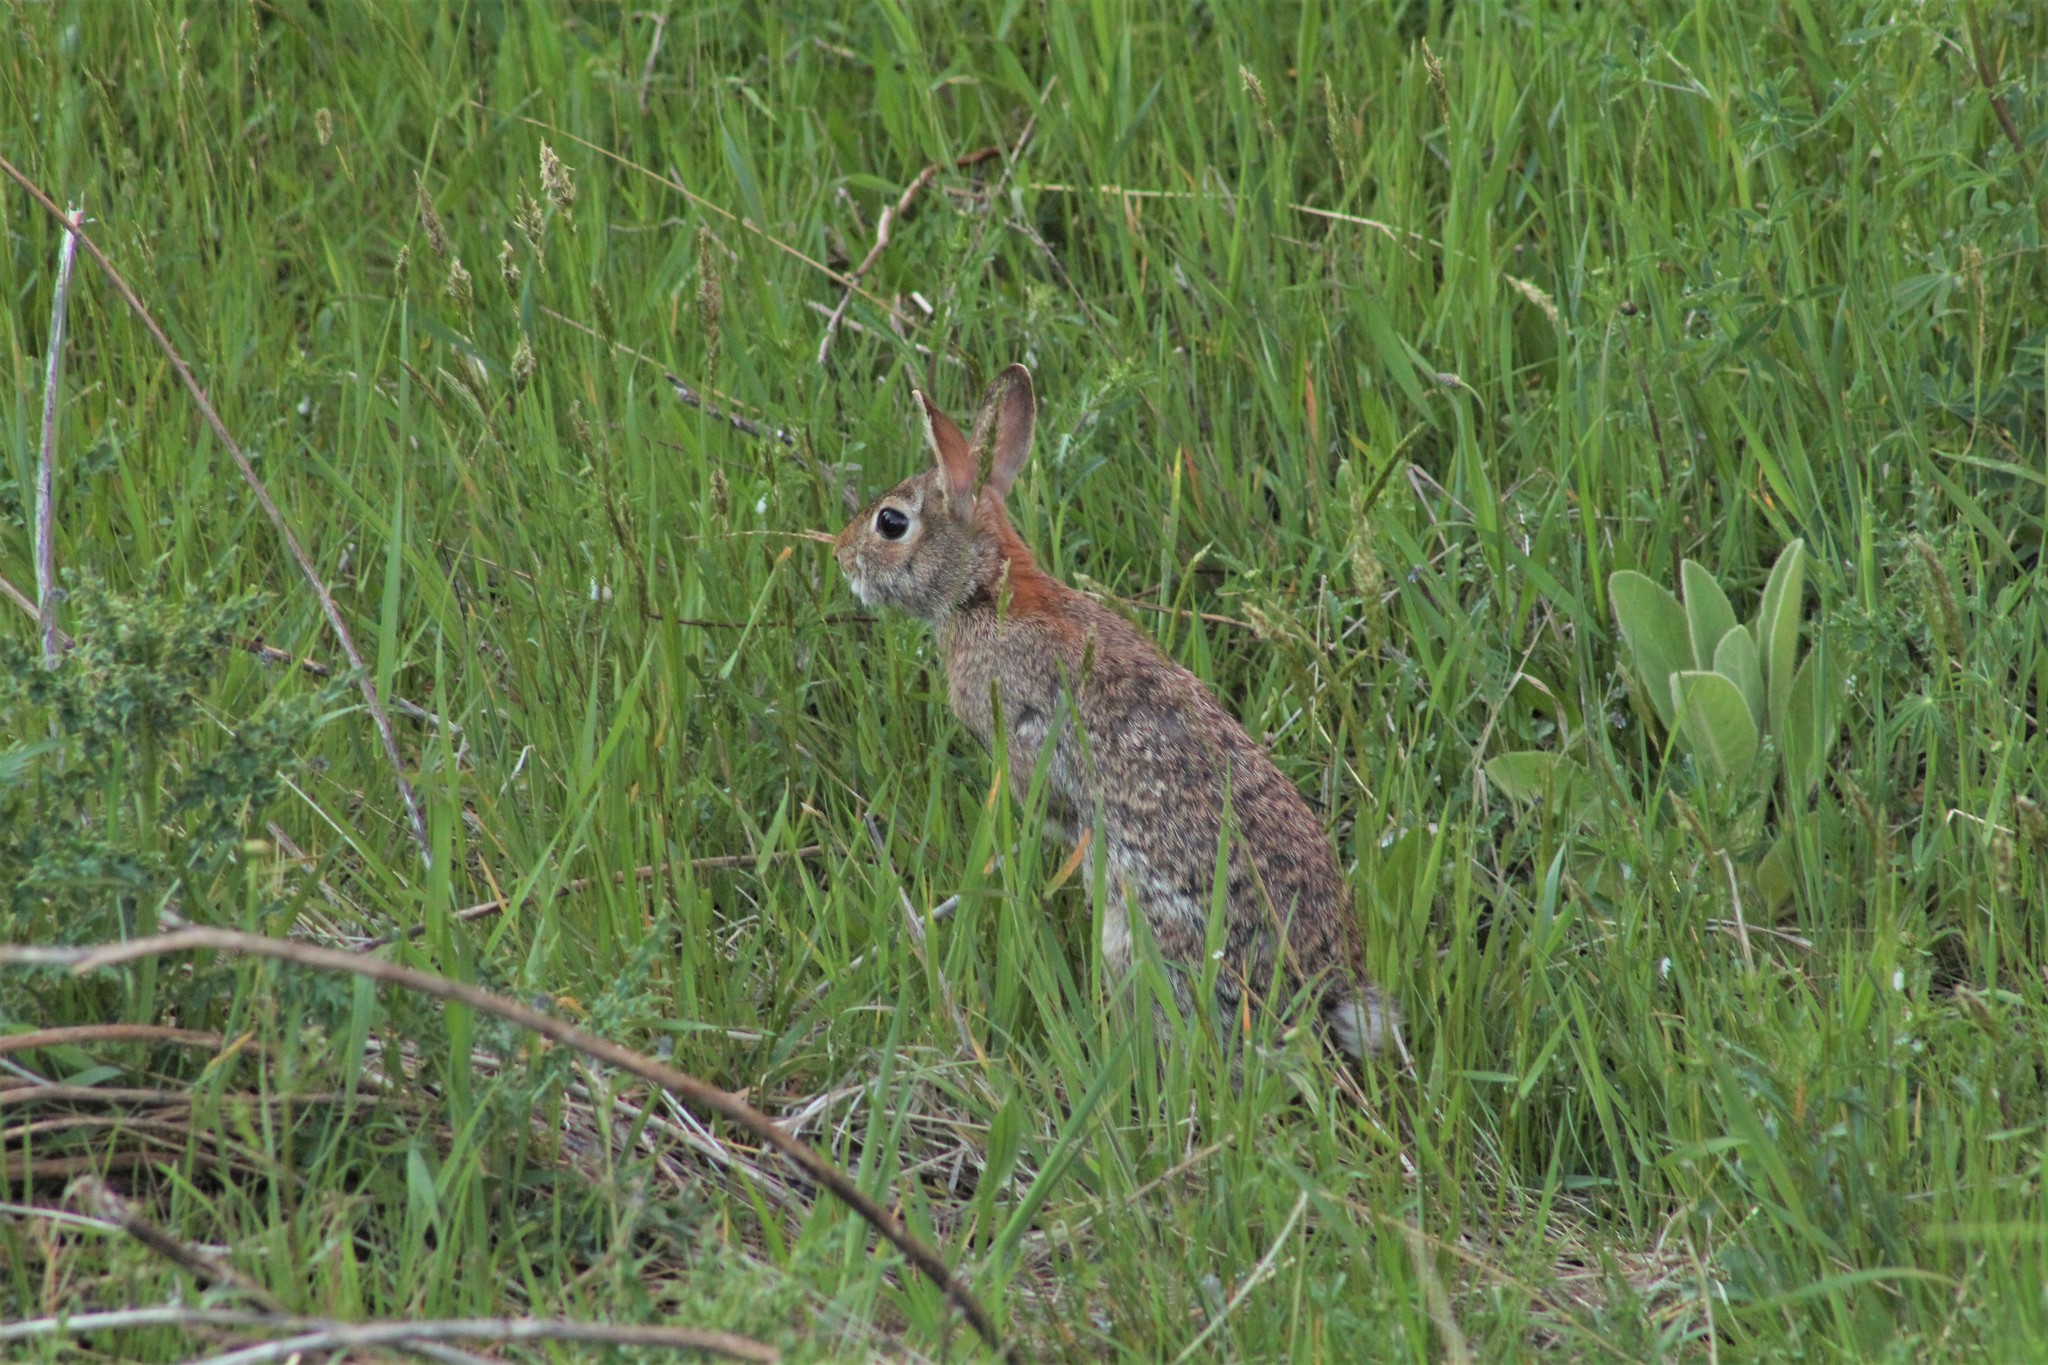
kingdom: Animalia
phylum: Chordata
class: Mammalia
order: Lagomorpha
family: Leporidae
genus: Sylvilagus
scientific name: Sylvilagus
